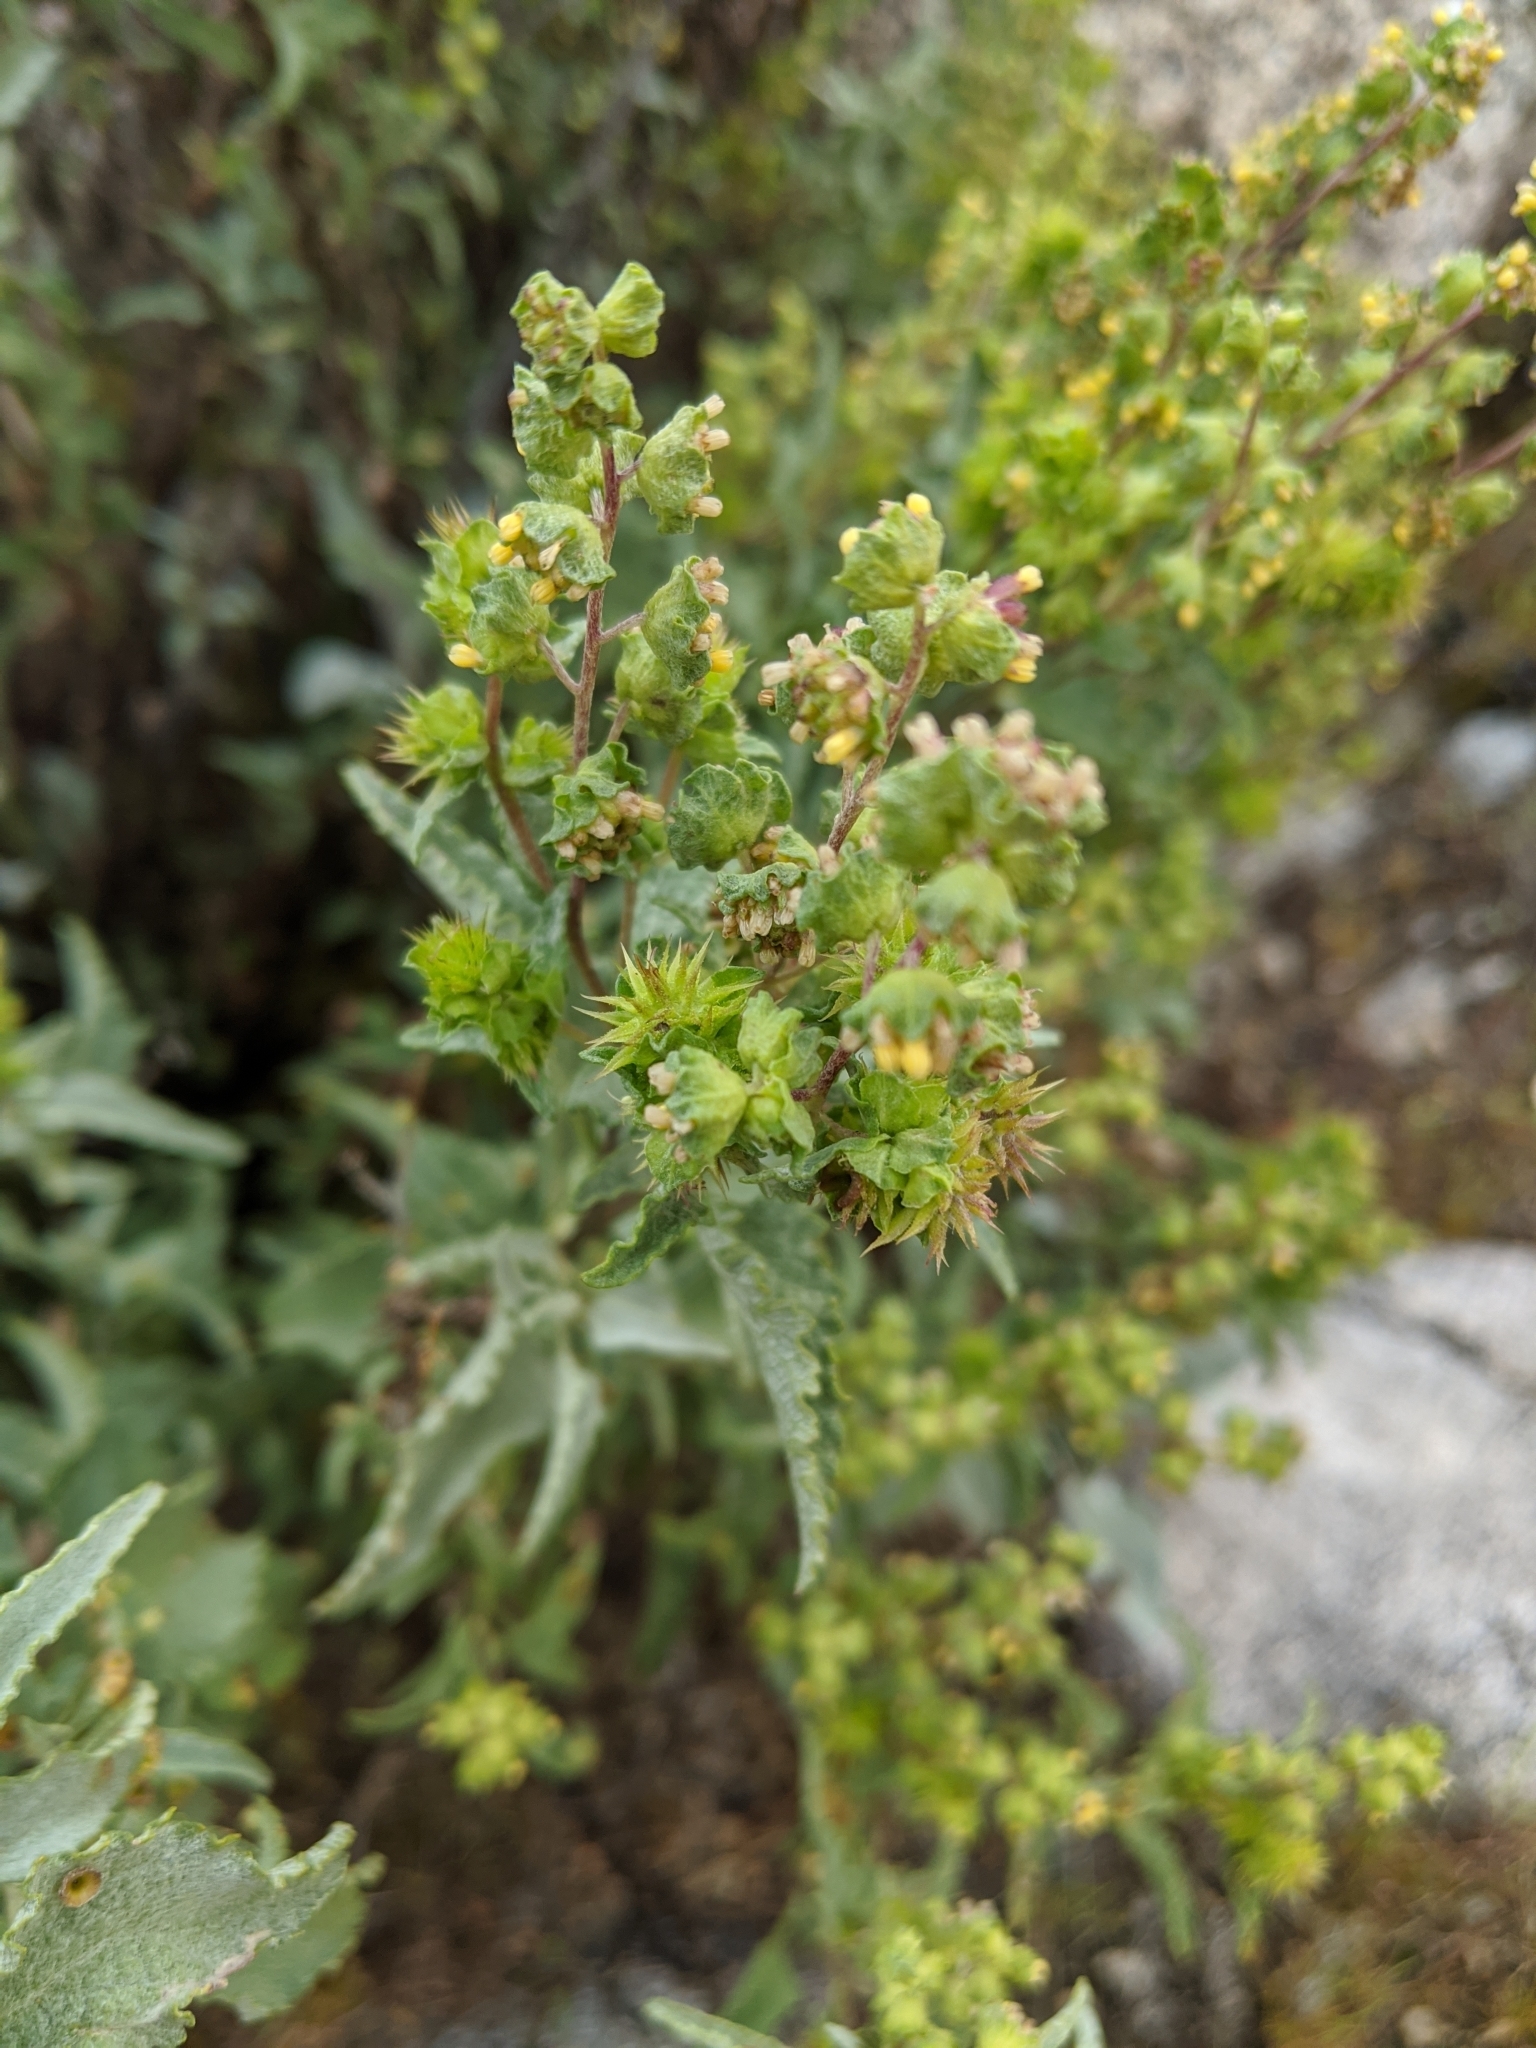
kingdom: Plantae
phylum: Tracheophyta
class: Magnoliopsida
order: Asterales
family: Asteraceae
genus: Ambrosia
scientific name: Ambrosia deltoidea
